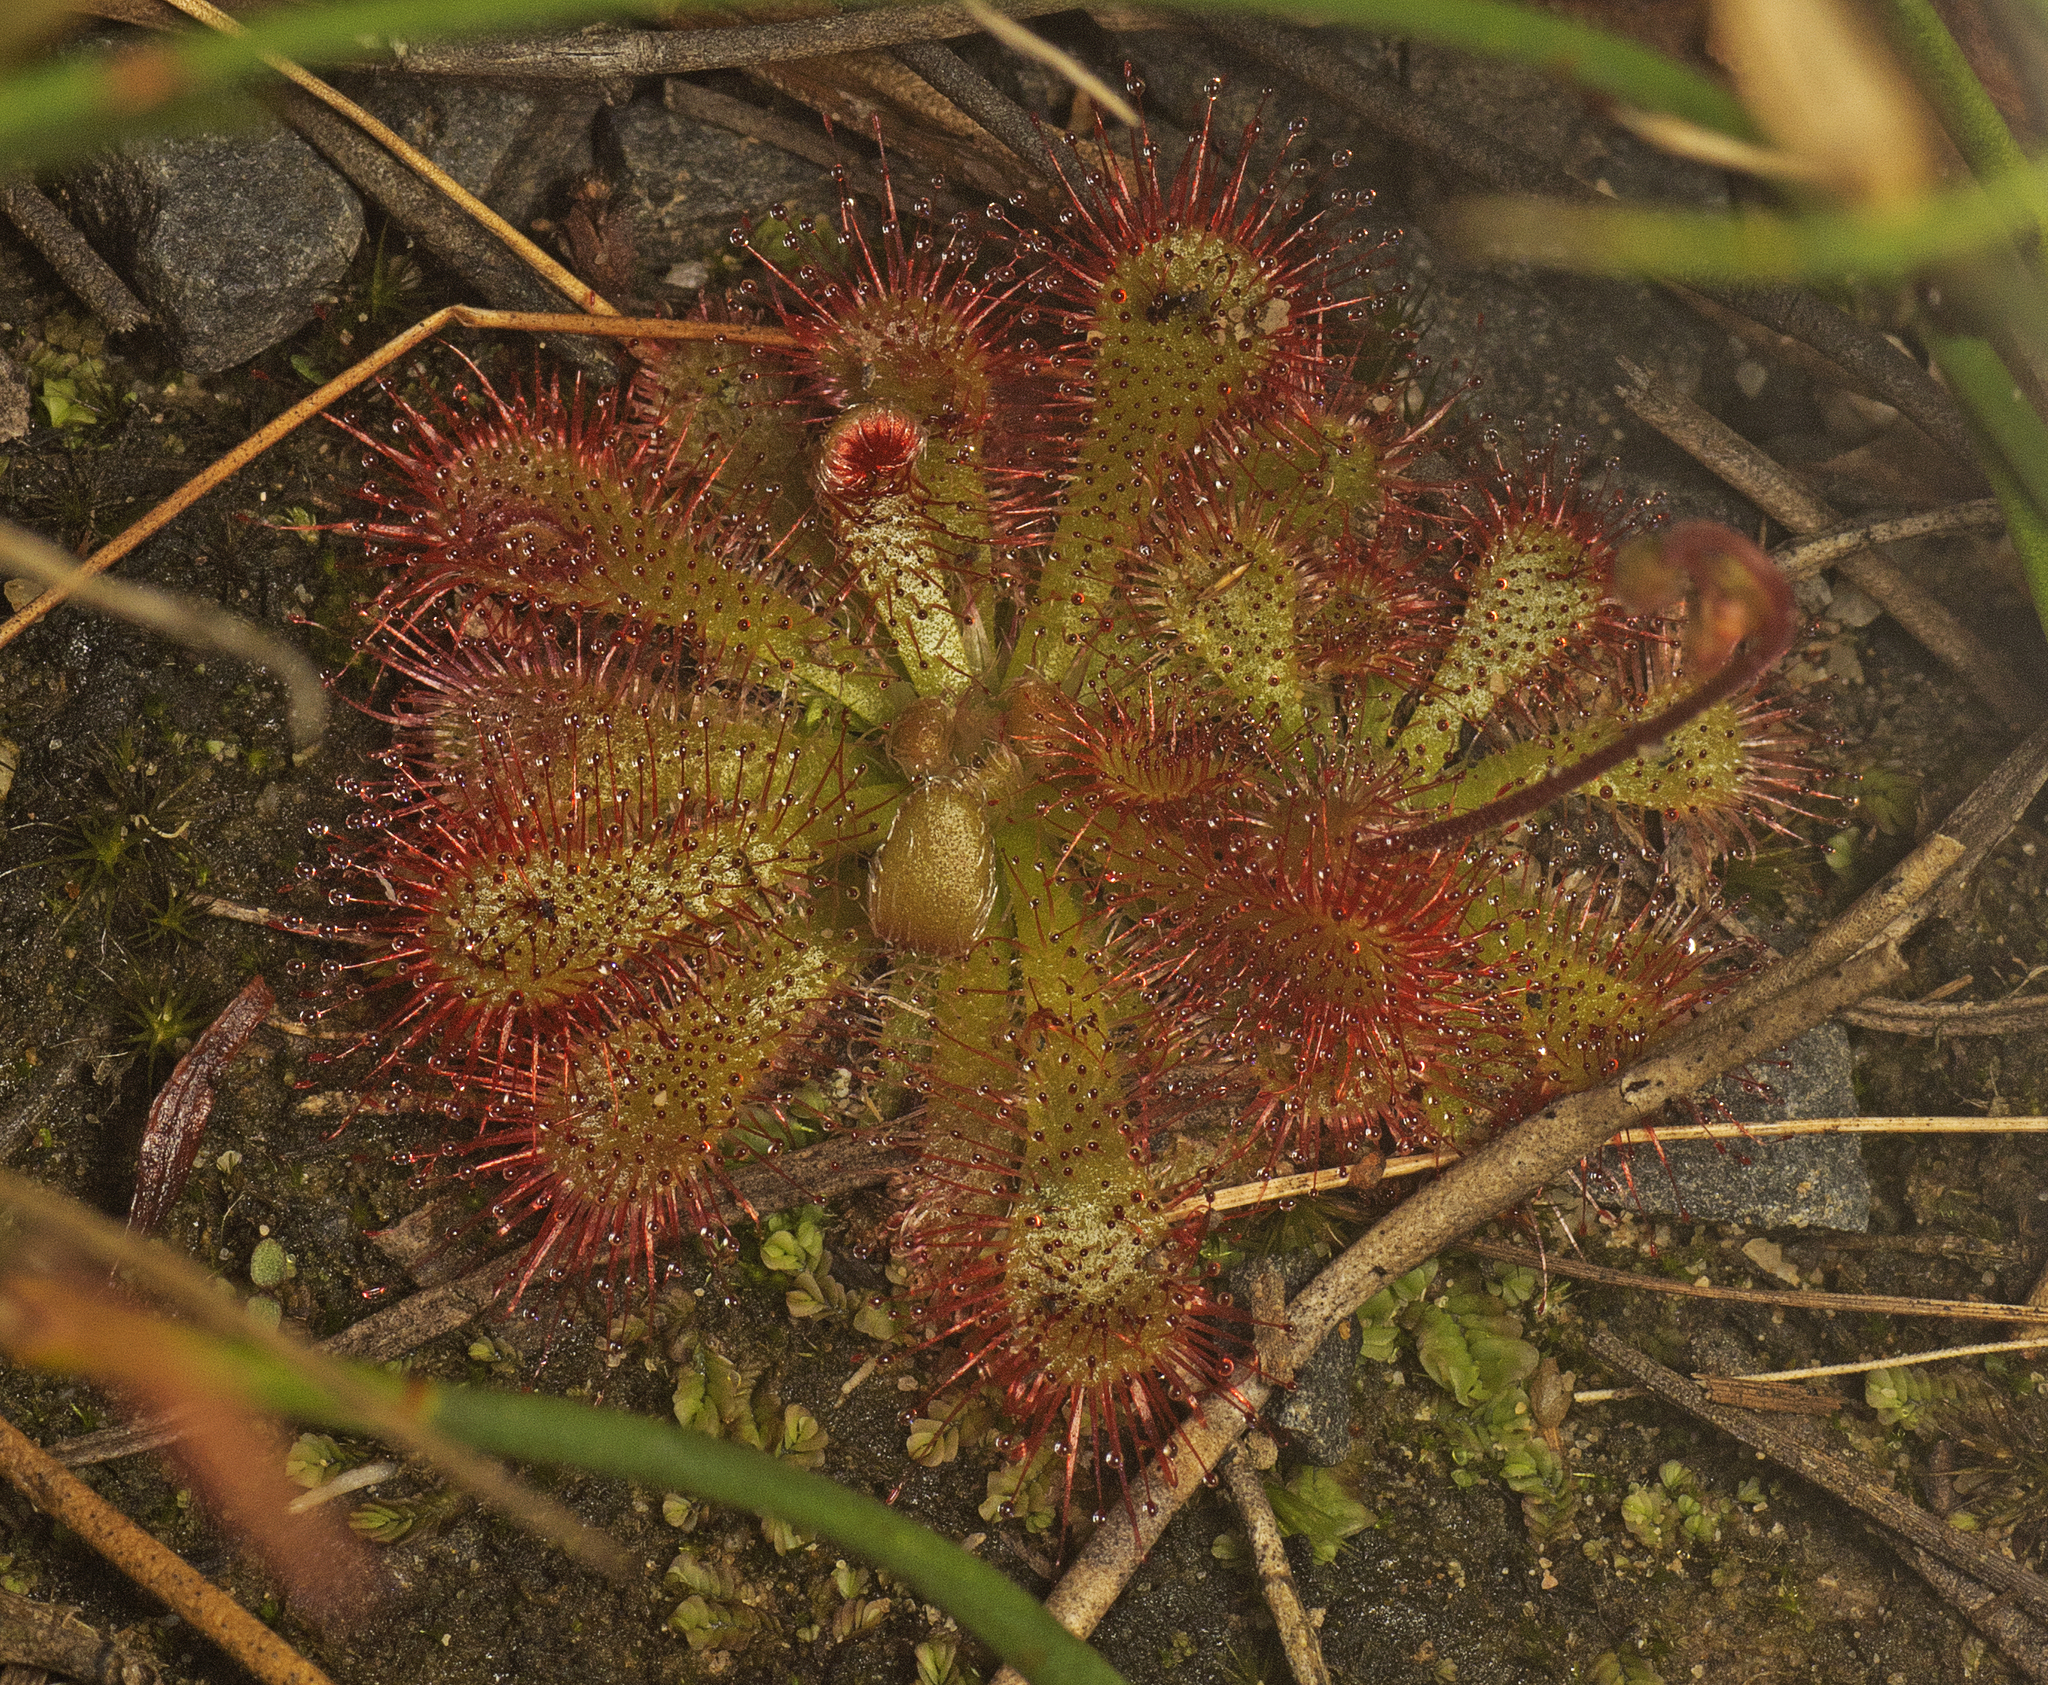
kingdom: Plantae
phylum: Tracheophyta
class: Magnoliopsida
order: Caryophyllales
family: Droseraceae
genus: Drosera
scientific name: Drosera spatulata
